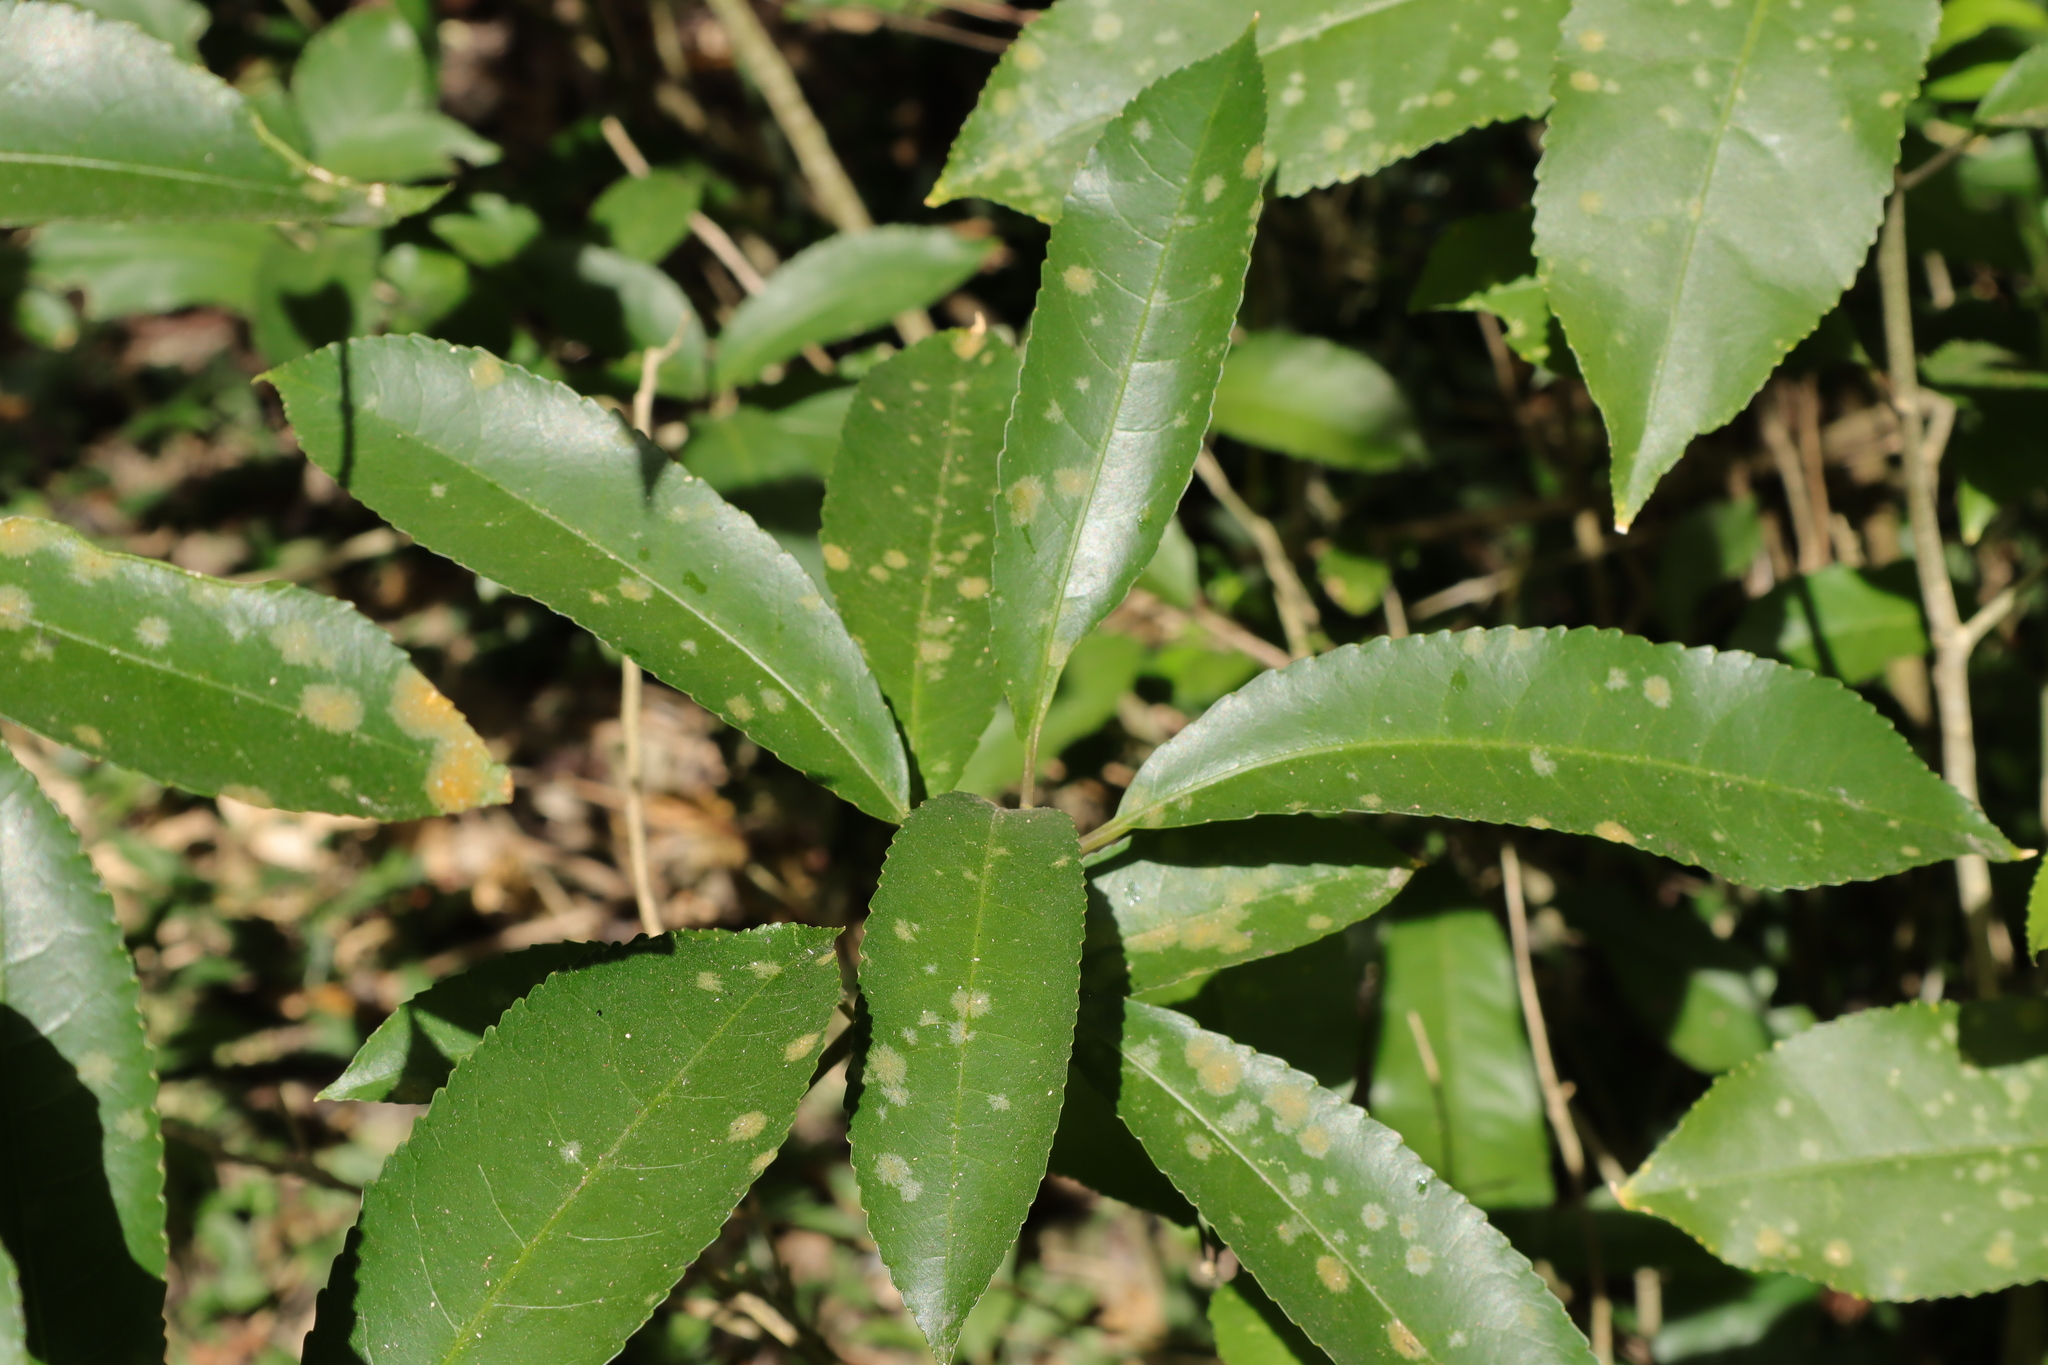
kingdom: Plantae
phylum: Tracheophyta
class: Magnoliopsida
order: Malpighiales
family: Violaceae
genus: Melicytus
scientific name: Melicytus ramiflorus
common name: Mahoe
